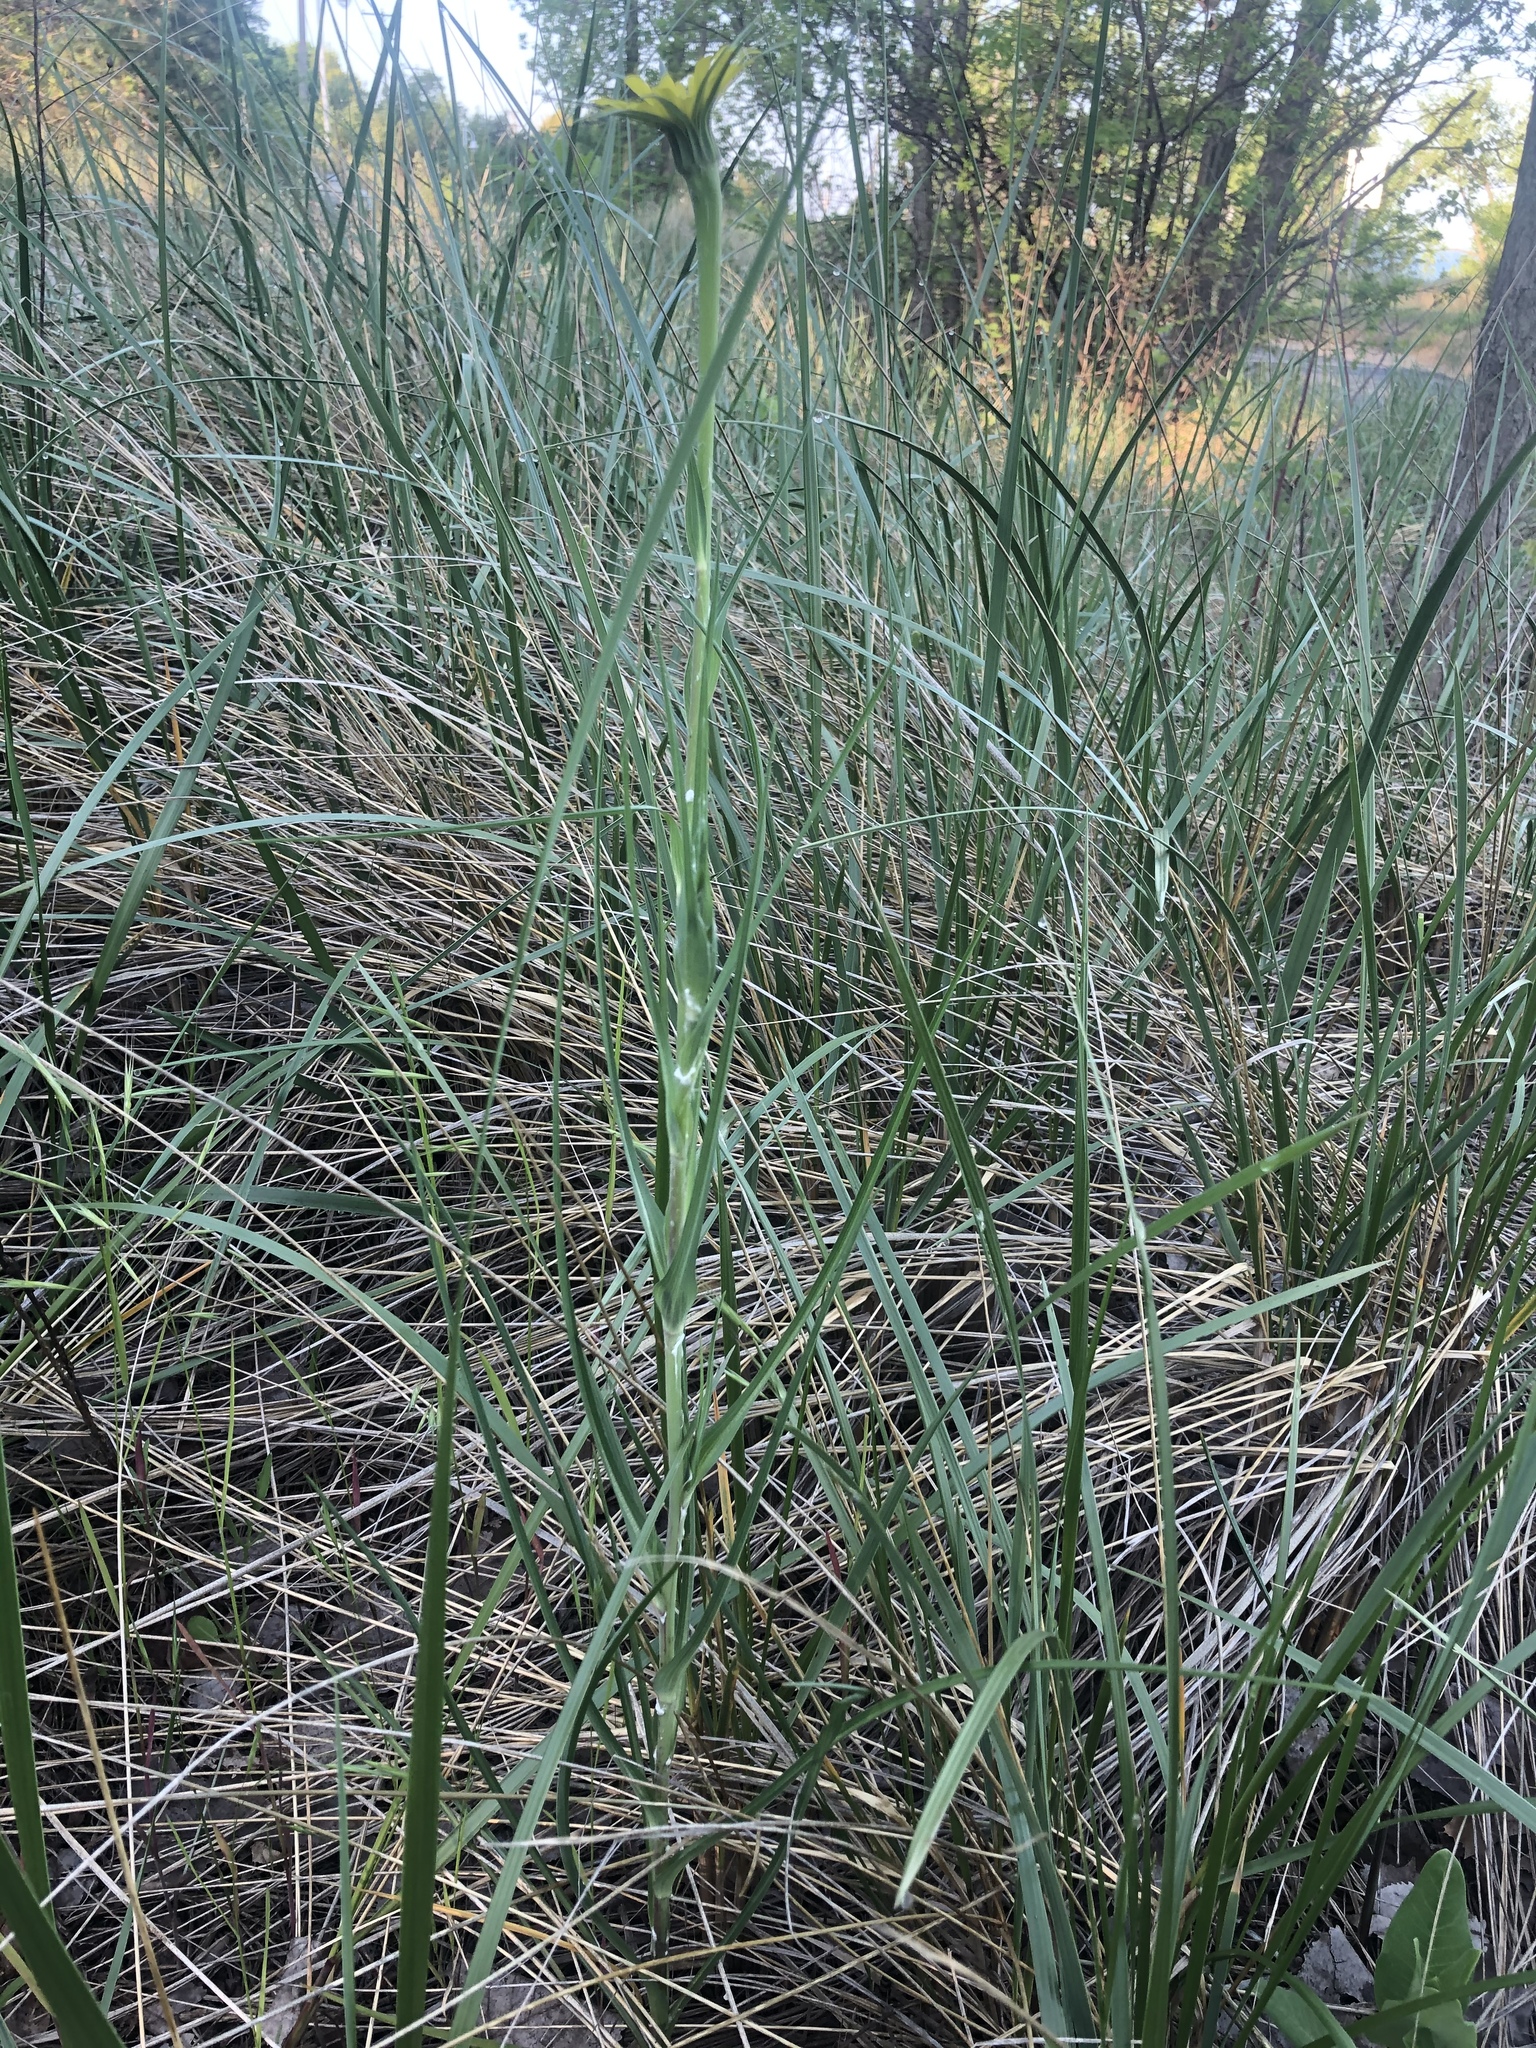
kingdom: Plantae
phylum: Tracheophyta
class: Magnoliopsida
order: Asterales
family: Asteraceae
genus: Tragopogon
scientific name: Tragopogon dubius
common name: Yellow salsify
